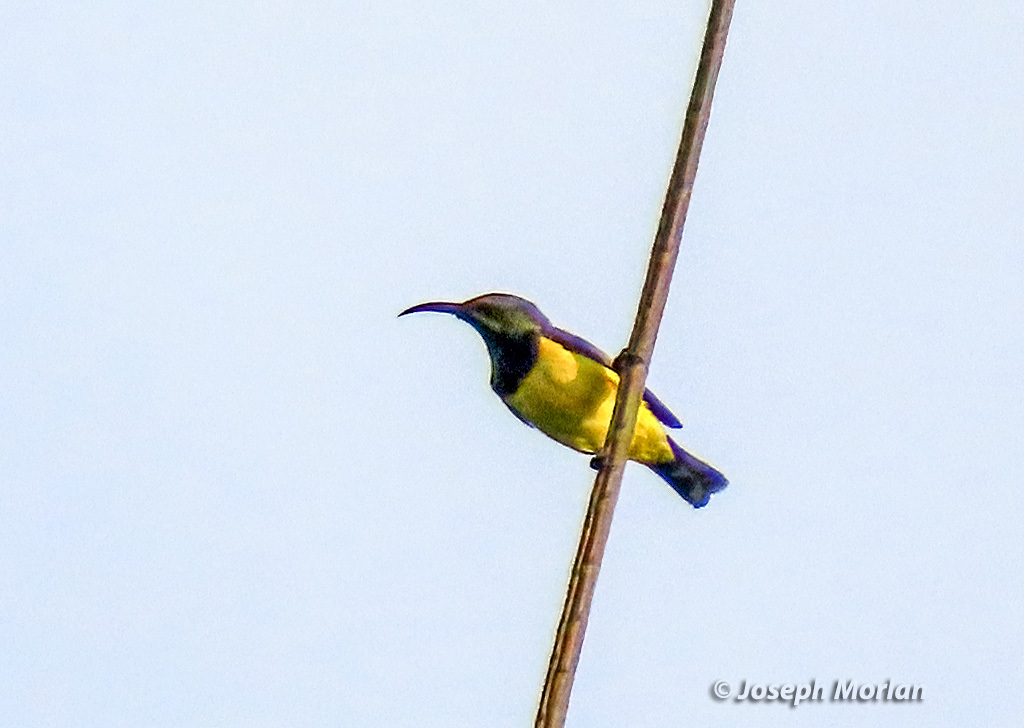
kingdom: Animalia
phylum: Chordata
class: Aves
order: Passeriformes
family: Nectariniidae
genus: Cinnyris
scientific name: Cinnyris
